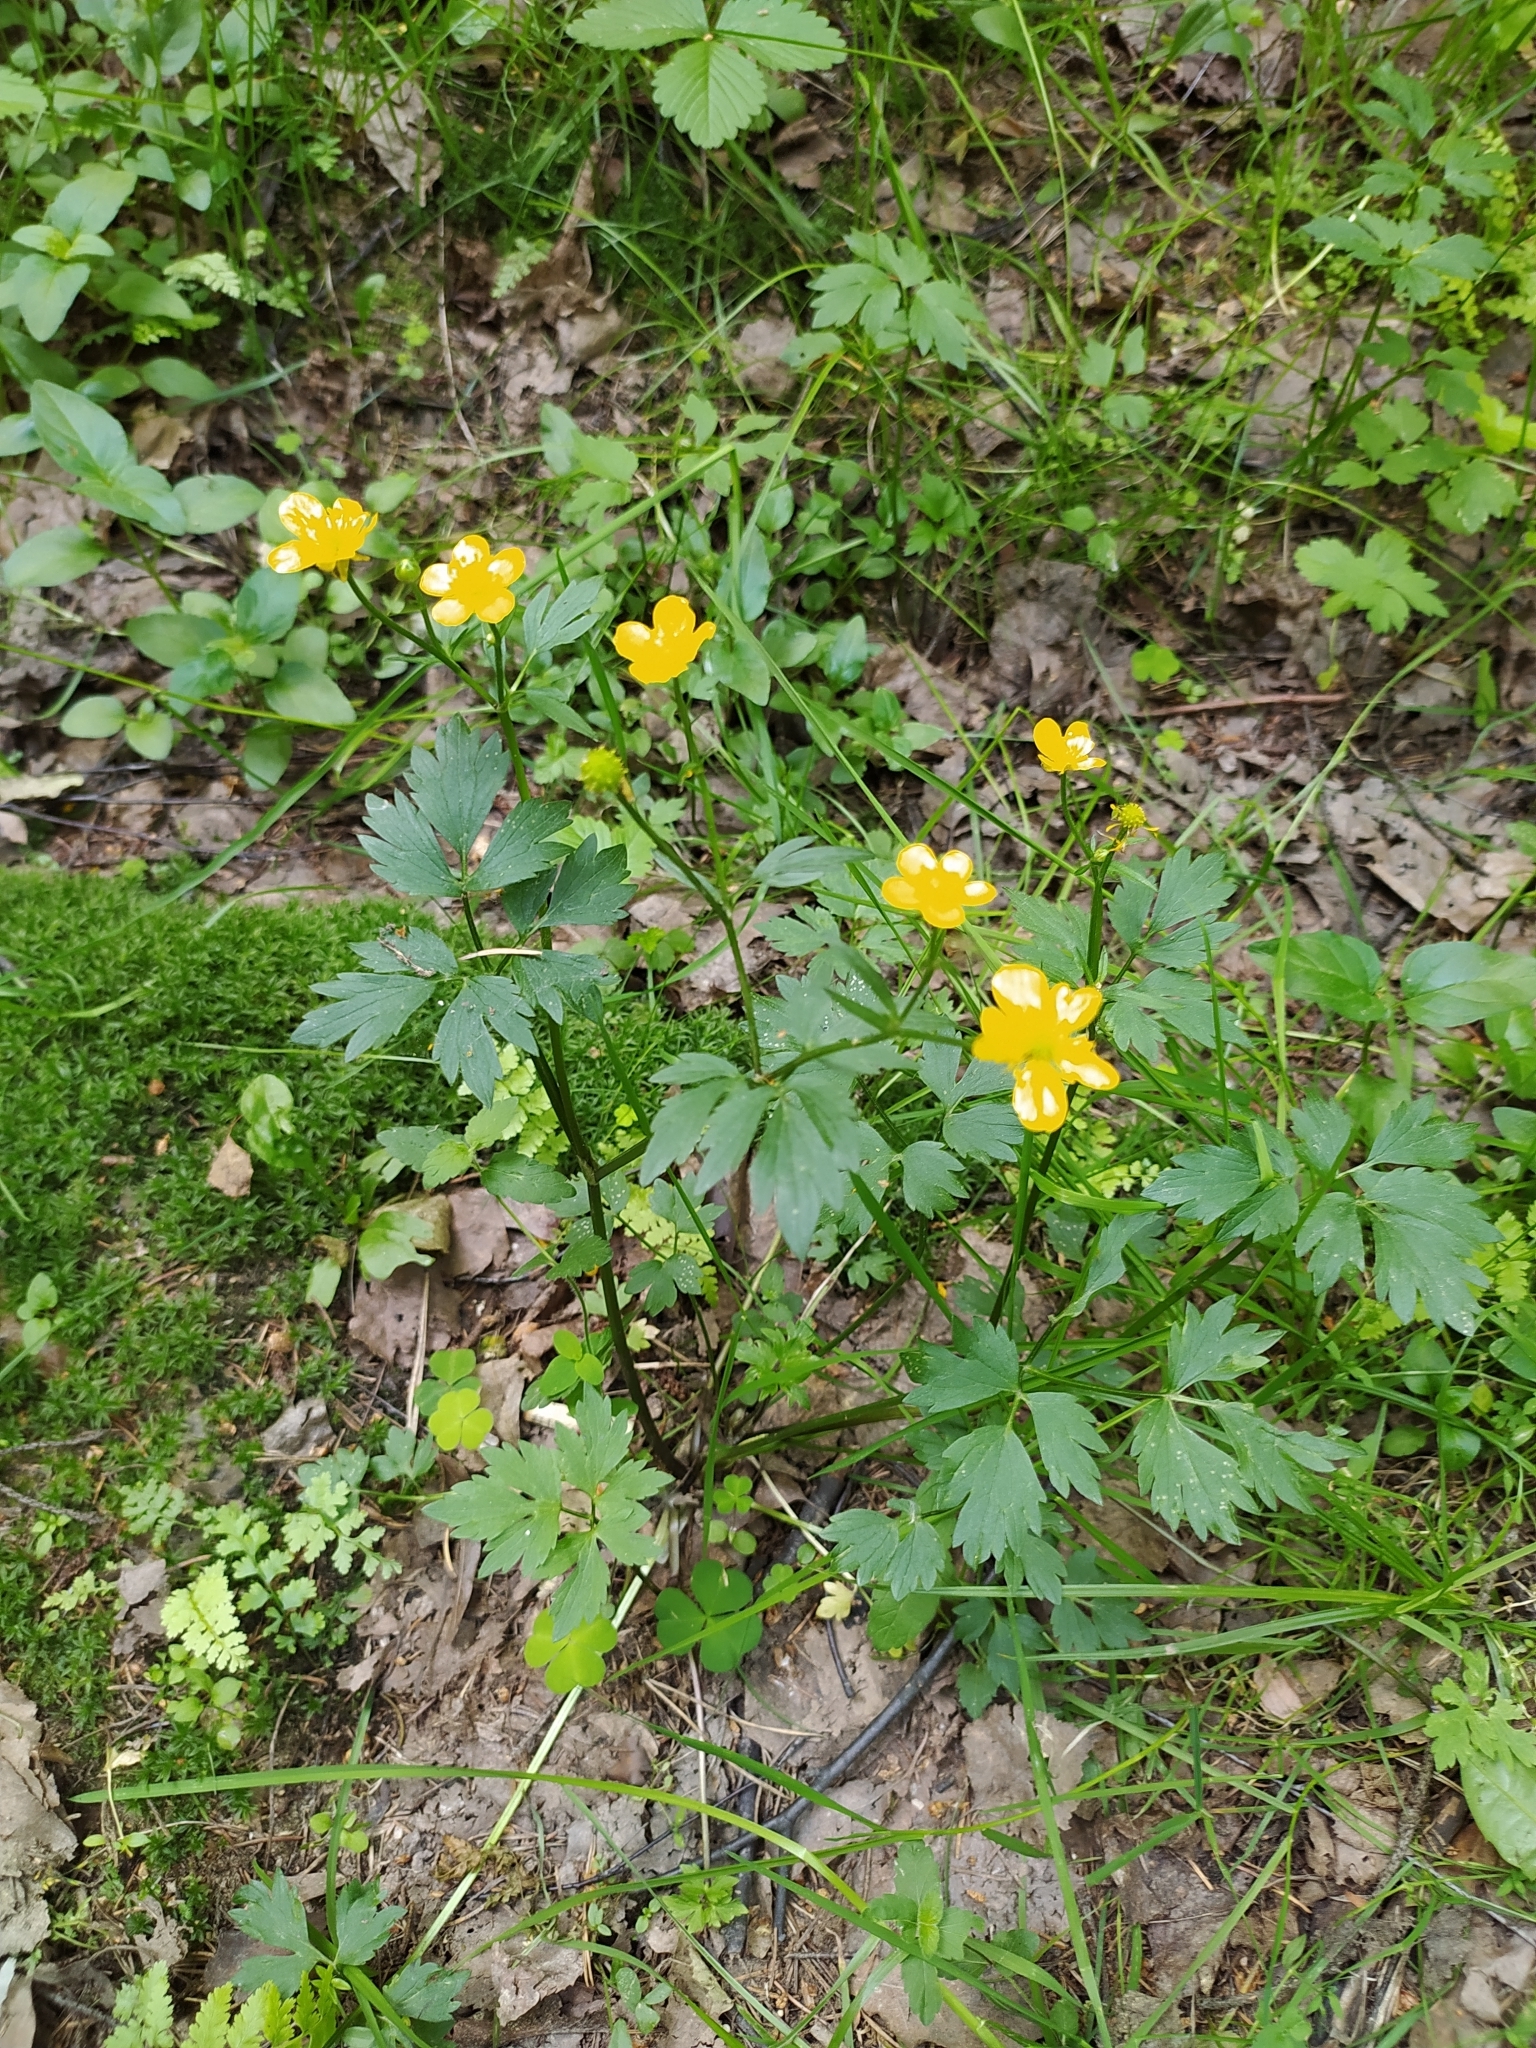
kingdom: Plantae
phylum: Tracheophyta
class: Magnoliopsida
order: Ranunculales
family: Ranunculaceae
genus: Ranunculus
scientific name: Ranunculus repens
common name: Creeping buttercup
